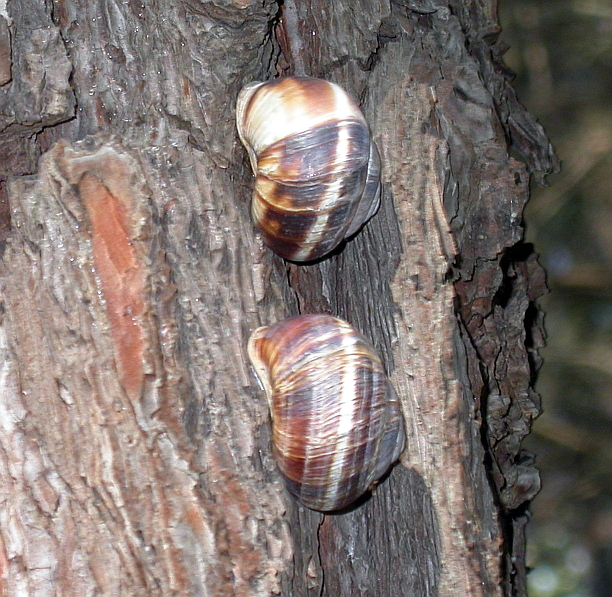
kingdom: Animalia
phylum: Mollusca
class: Gastropoda
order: Stylommatophora
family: Helicidae
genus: Helix
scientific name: Helix lucorum
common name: Turkish snail
